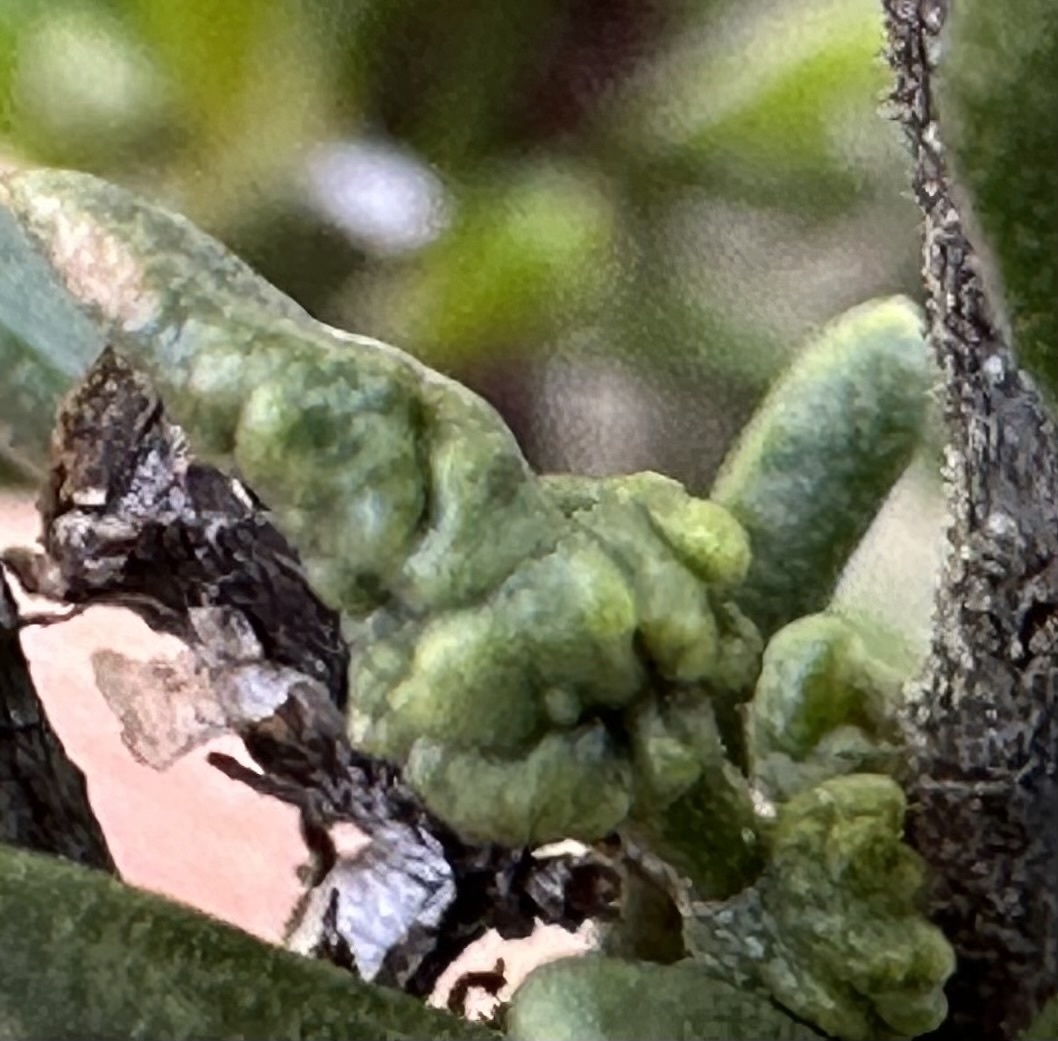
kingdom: Animalia
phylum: Arthropoda
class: Arachnida
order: Trombidiformes
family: Eriophyidae
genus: Eriophyes
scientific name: Eriophyes
